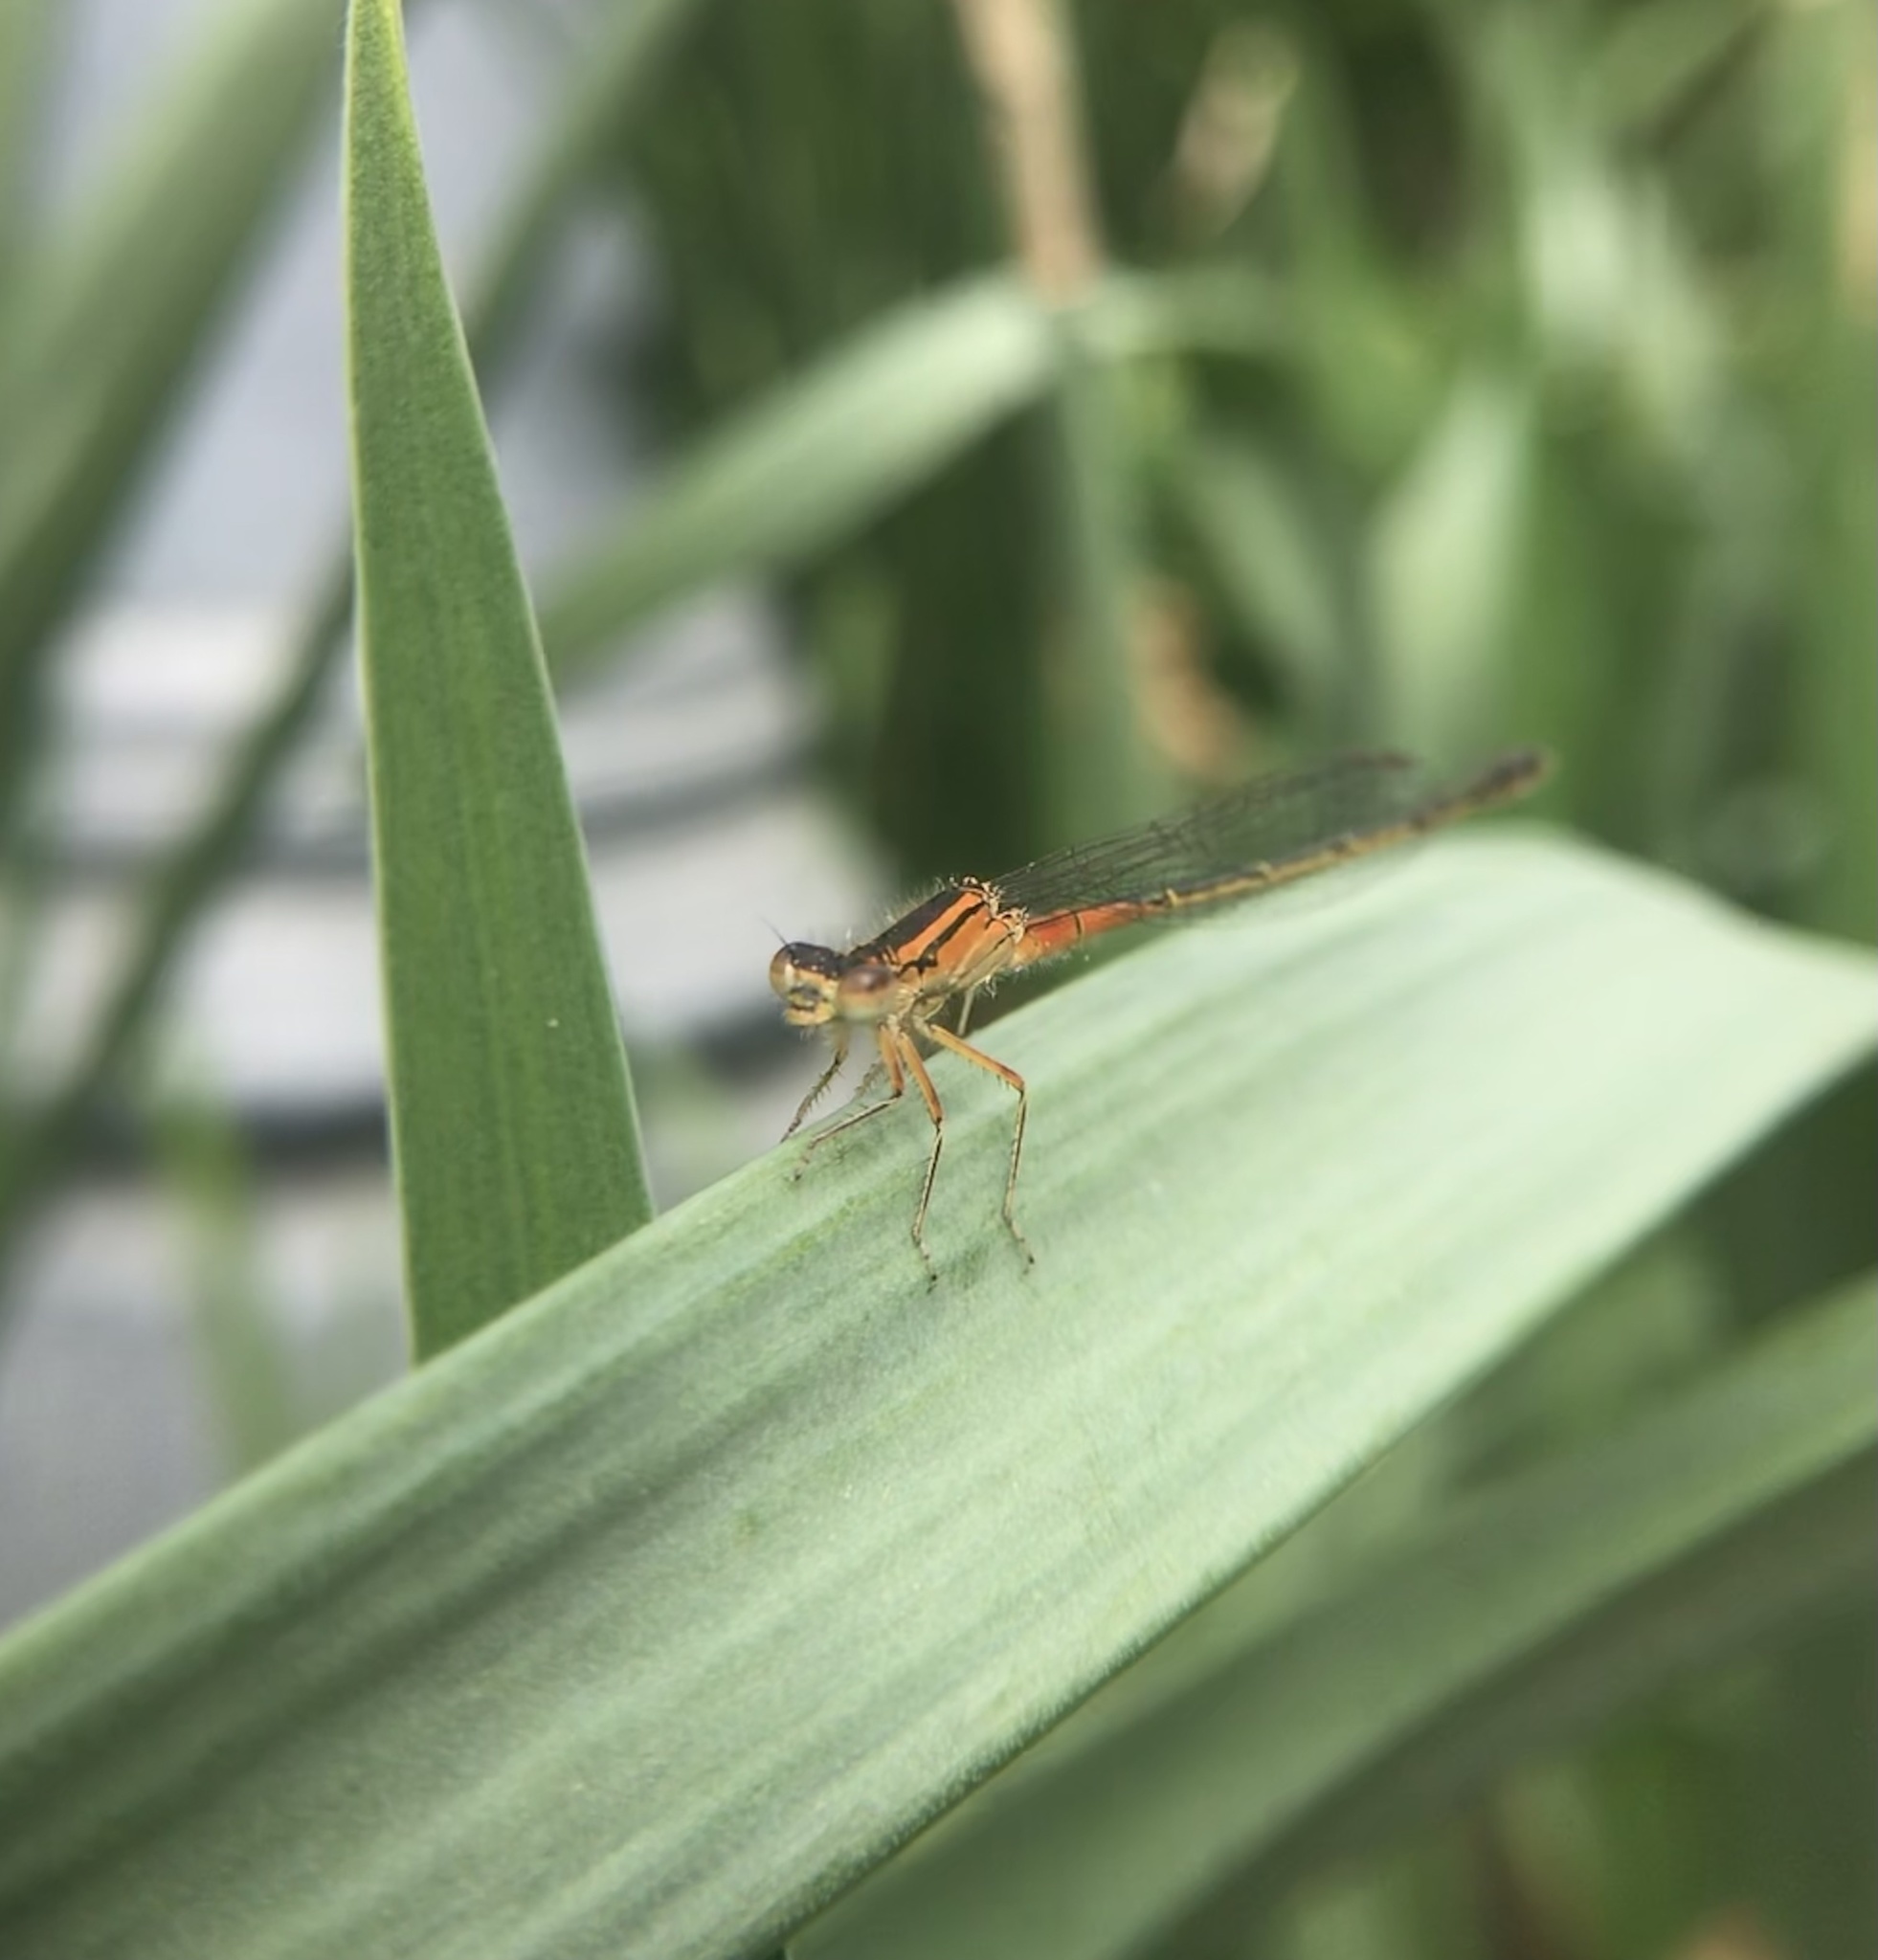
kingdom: Animalia
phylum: Arthropoda
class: Insecta
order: Odonata
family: Coenagrionidae
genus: Ischnura
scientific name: Ischnura verticalis
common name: Eastern forktail
